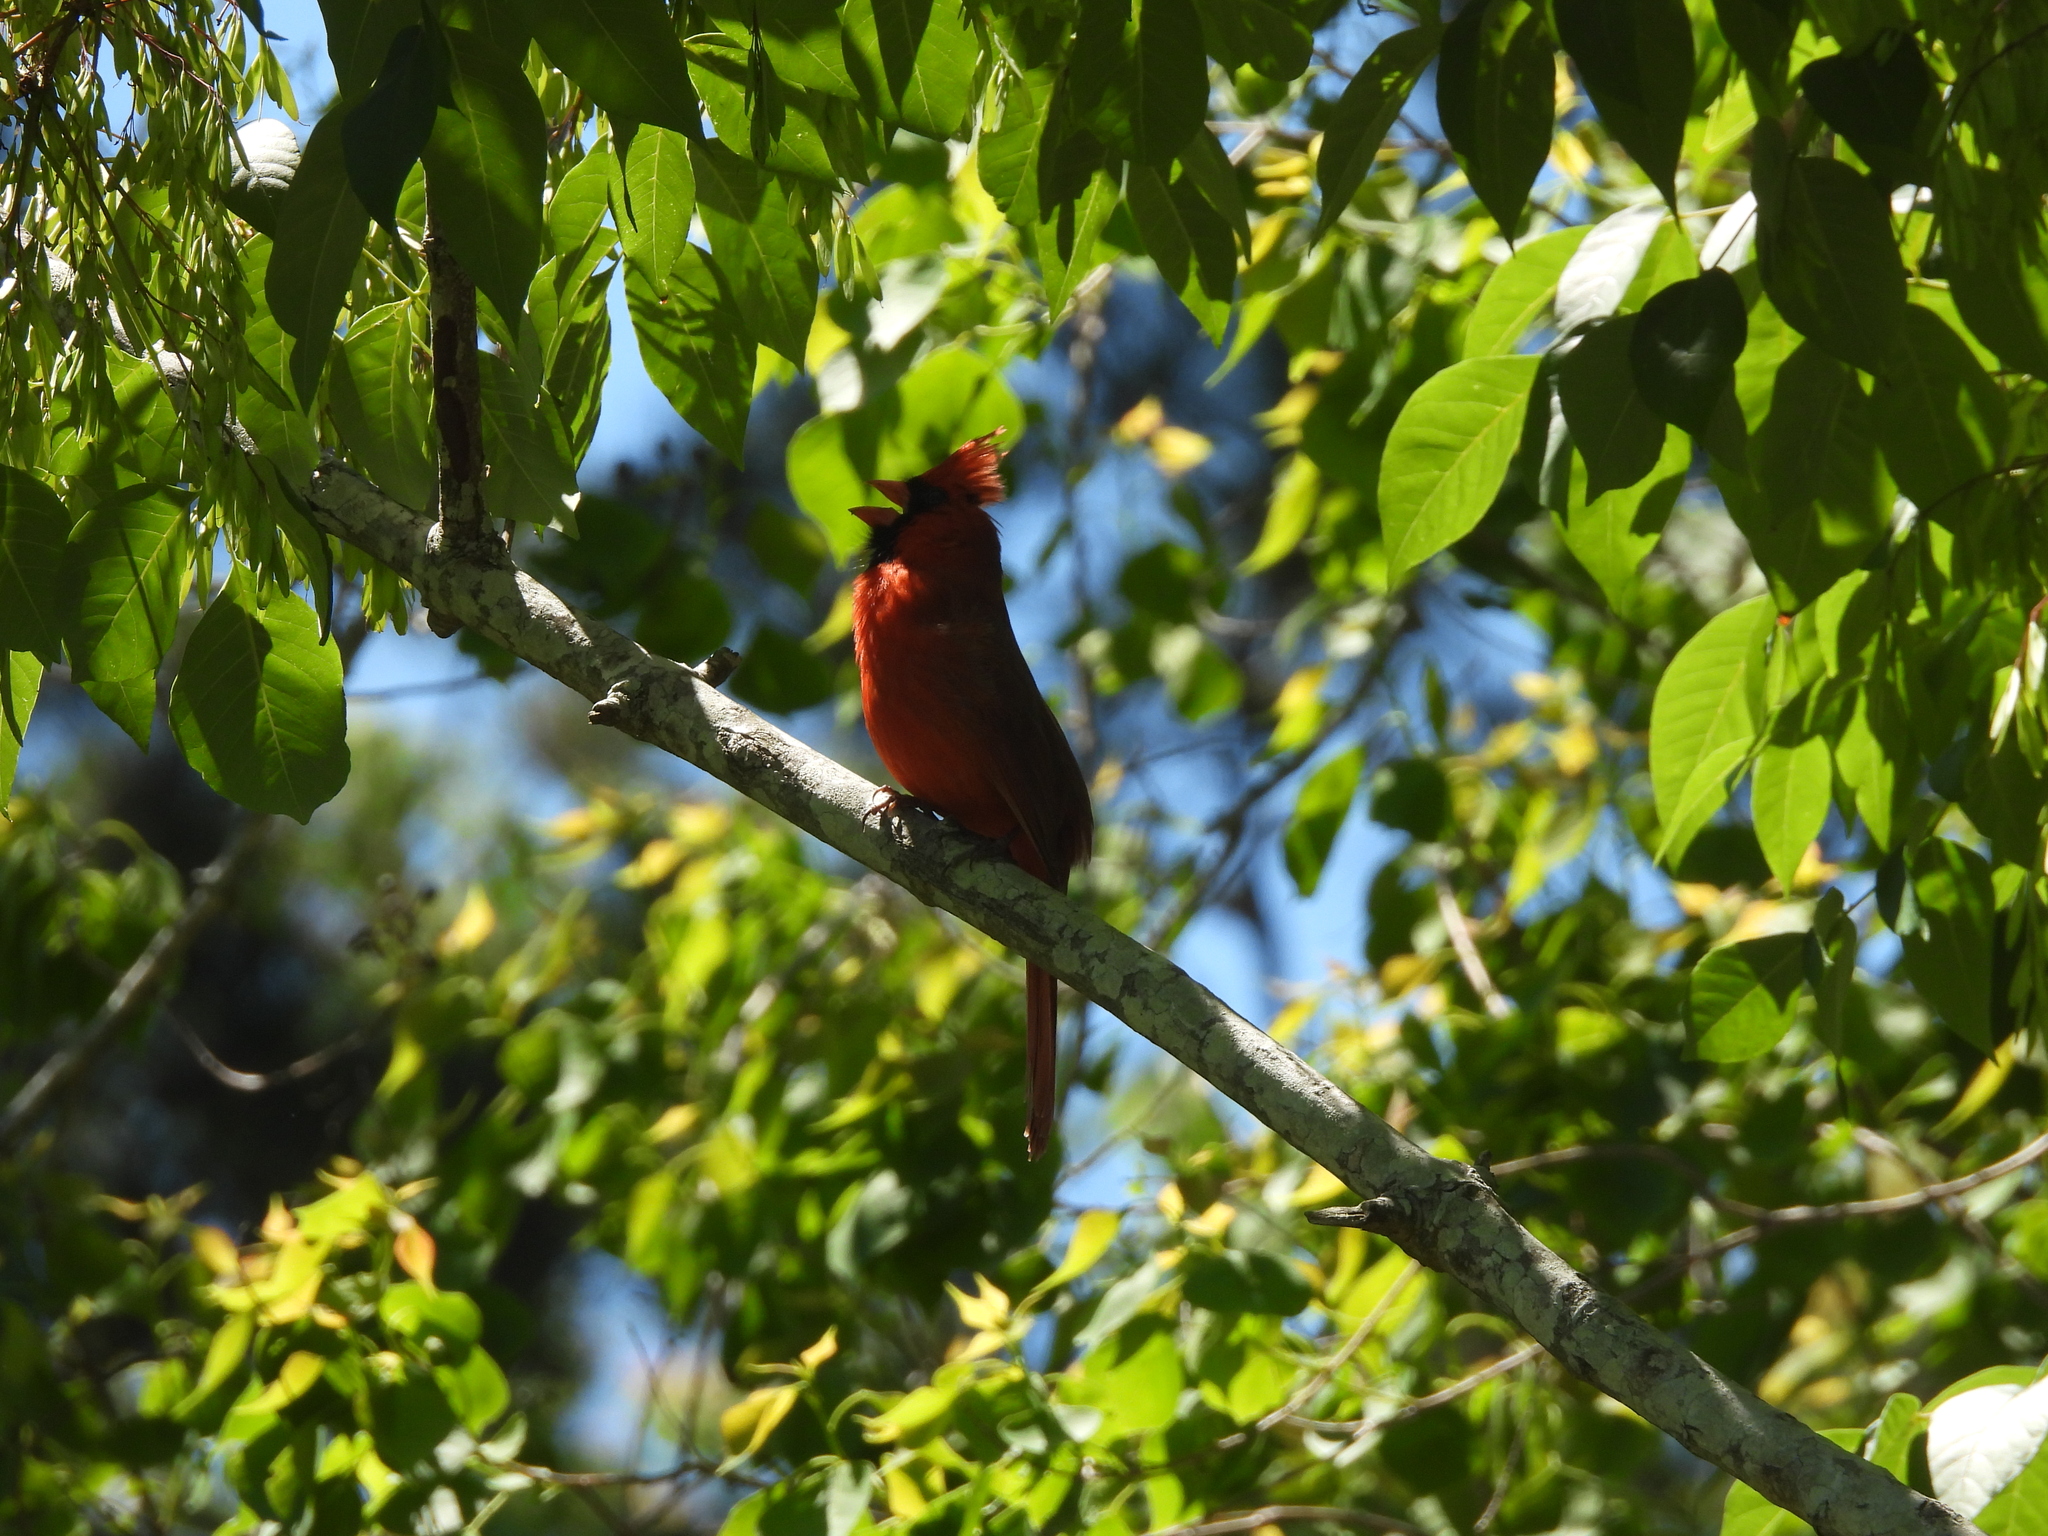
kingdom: Animalia
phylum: Chordata
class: Aves
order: Passeriformes
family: Cardinalidae
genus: Cardinalis
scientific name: Cardinalis cardinalis
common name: Northern cardinal
